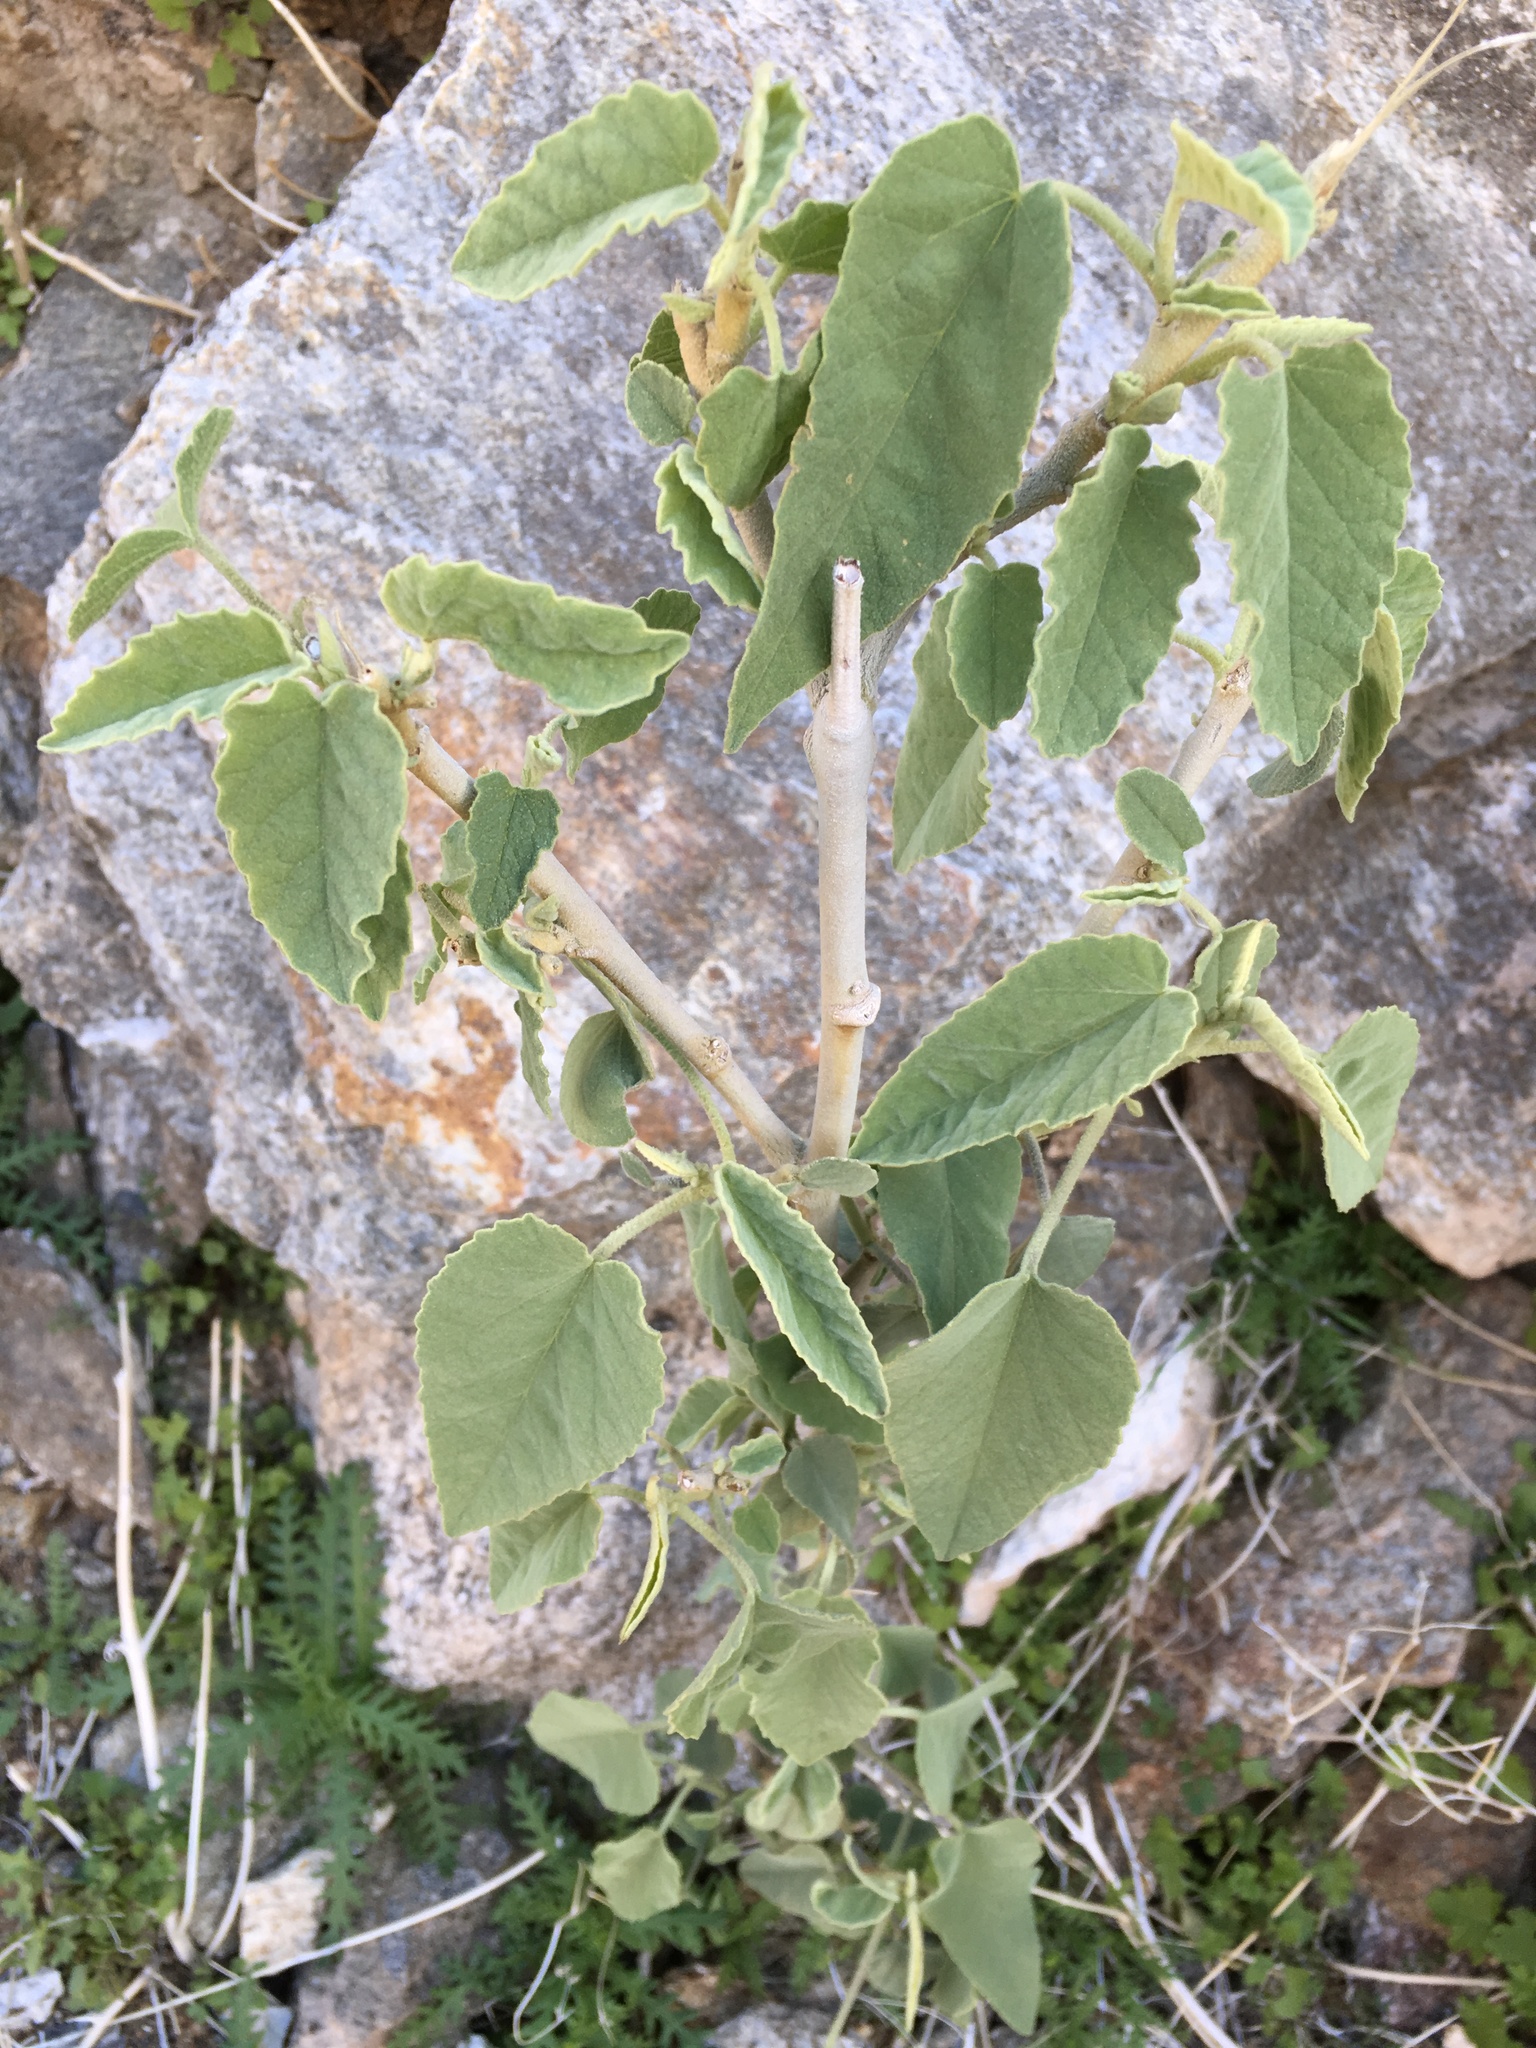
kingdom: Plantae
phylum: Tracheophyta
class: Magnoliopsida
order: Malvales
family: Malvaceae
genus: Horsfordia
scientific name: Horsfordia newberryi
